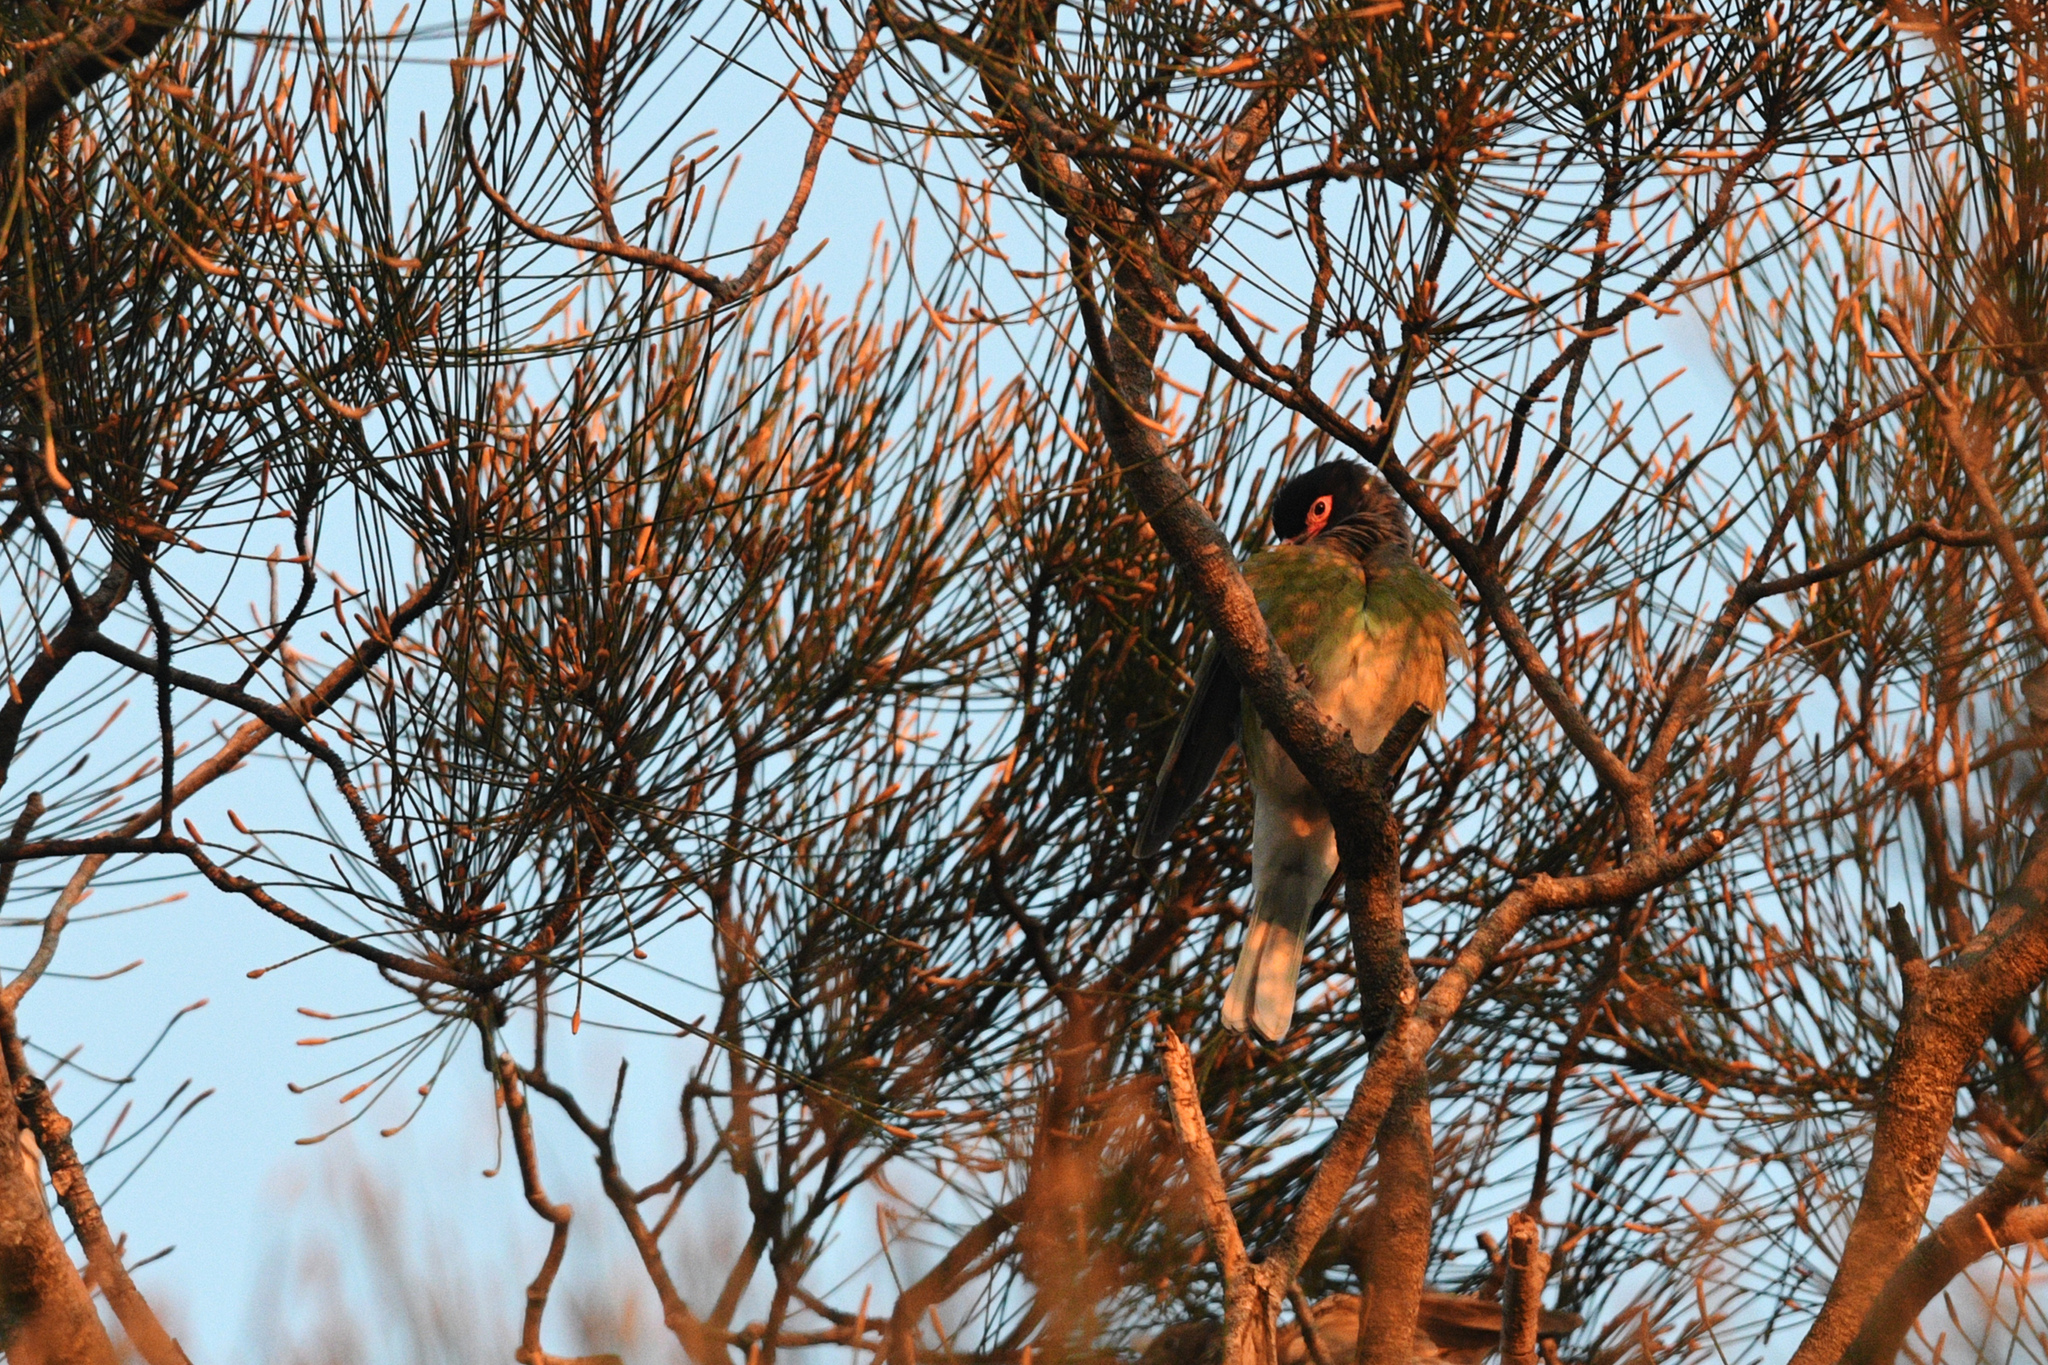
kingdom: Animalia
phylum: Chordata
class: Aves
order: Passeriformes
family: Oriolidae
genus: Sphecotheres
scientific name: Sphecotheres vieilloti
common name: Australasian figbird
